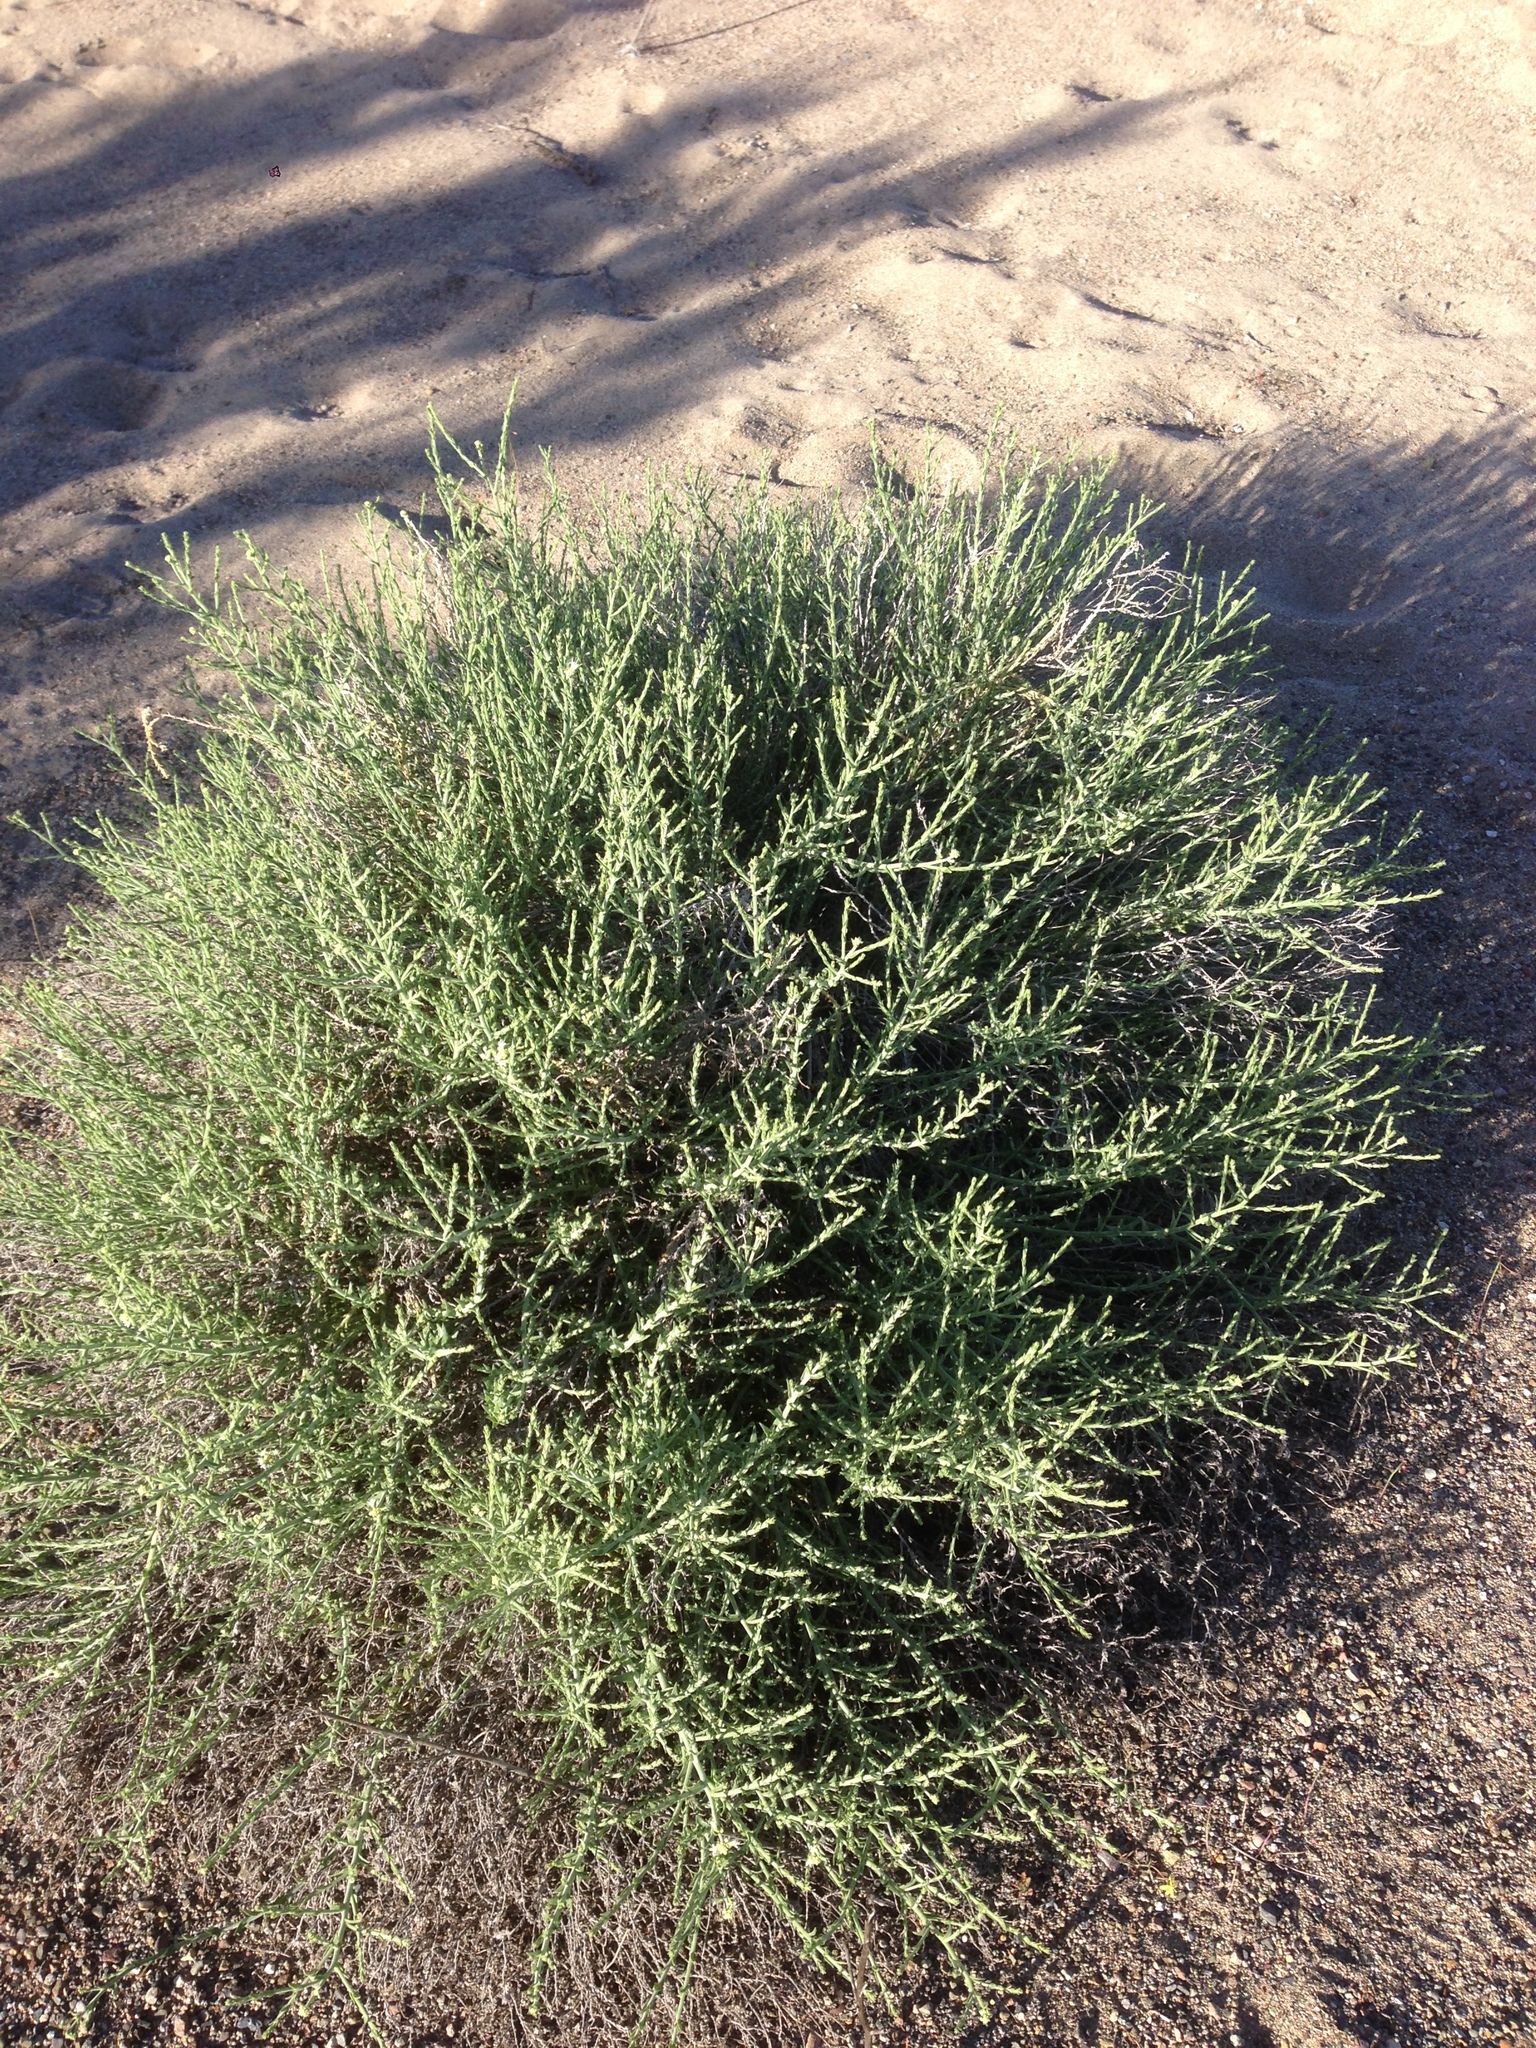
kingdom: Plantae
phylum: Tracheophyta
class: Magnoliopsida
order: Cornales
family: Loasaceae
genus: Petalonyx
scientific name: Petalonyx thurberi
